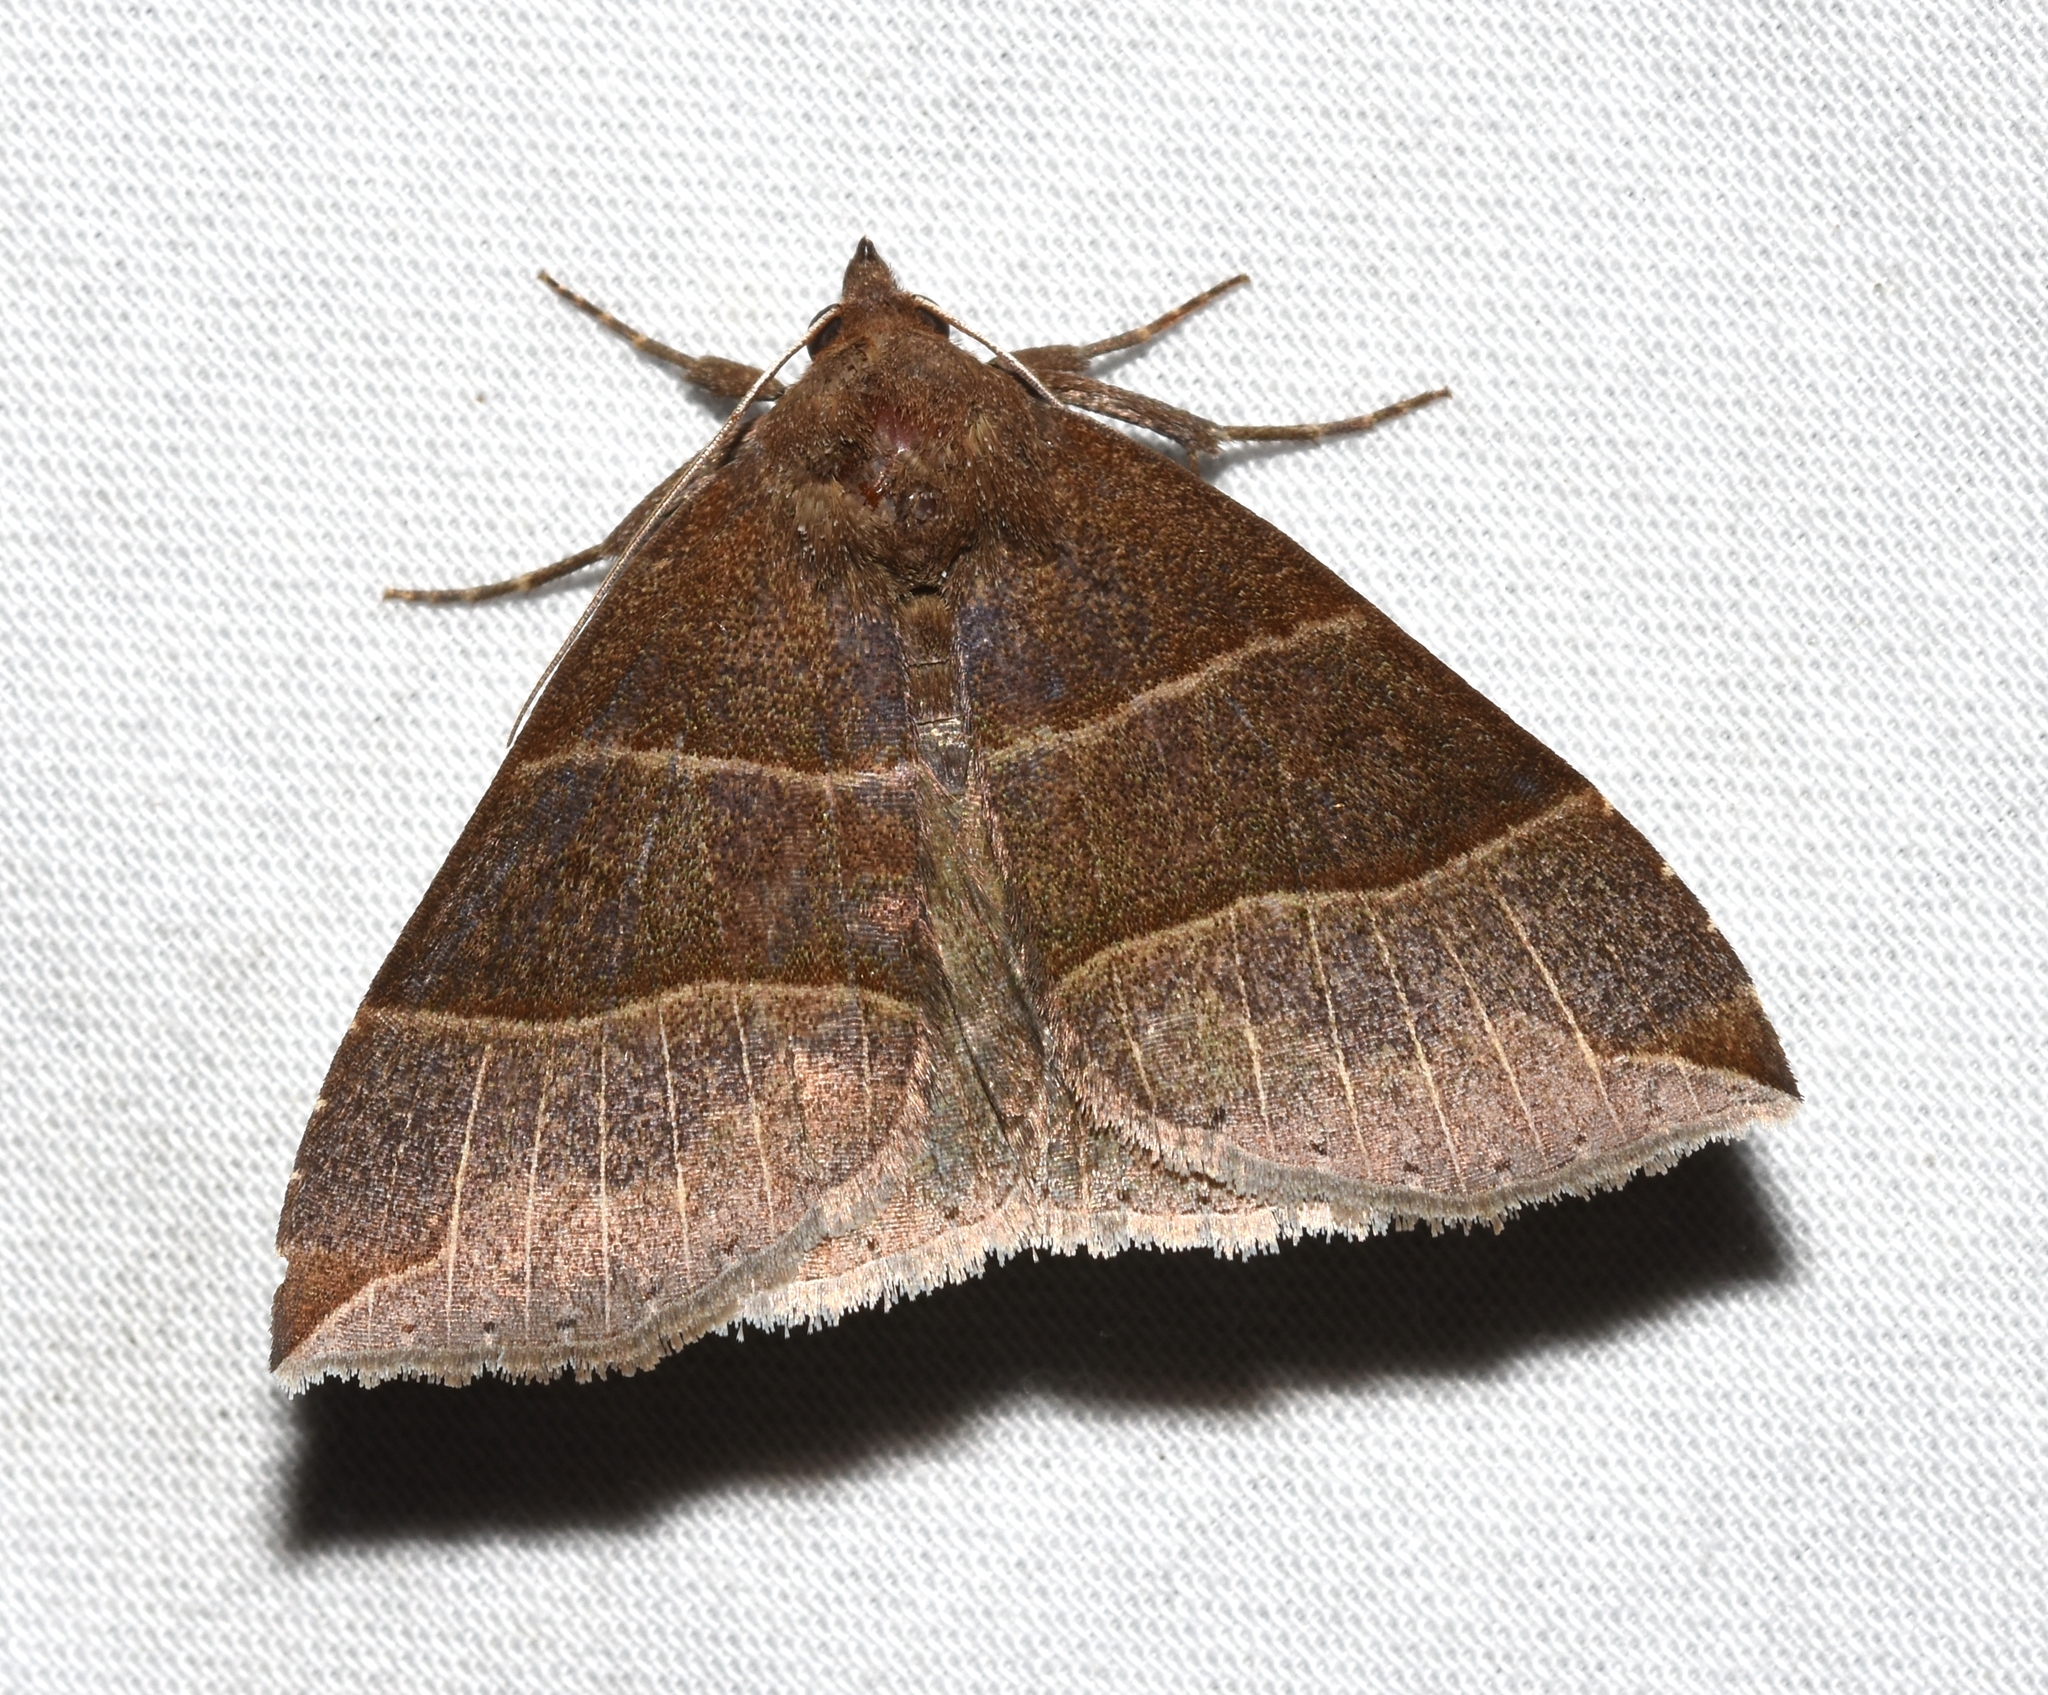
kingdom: Animalia
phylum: Arthropoda
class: Insecta
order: Lepidoptera
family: Erebidae
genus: Parallelia
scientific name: Parallelia bistriaris
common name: Maple looper moth
